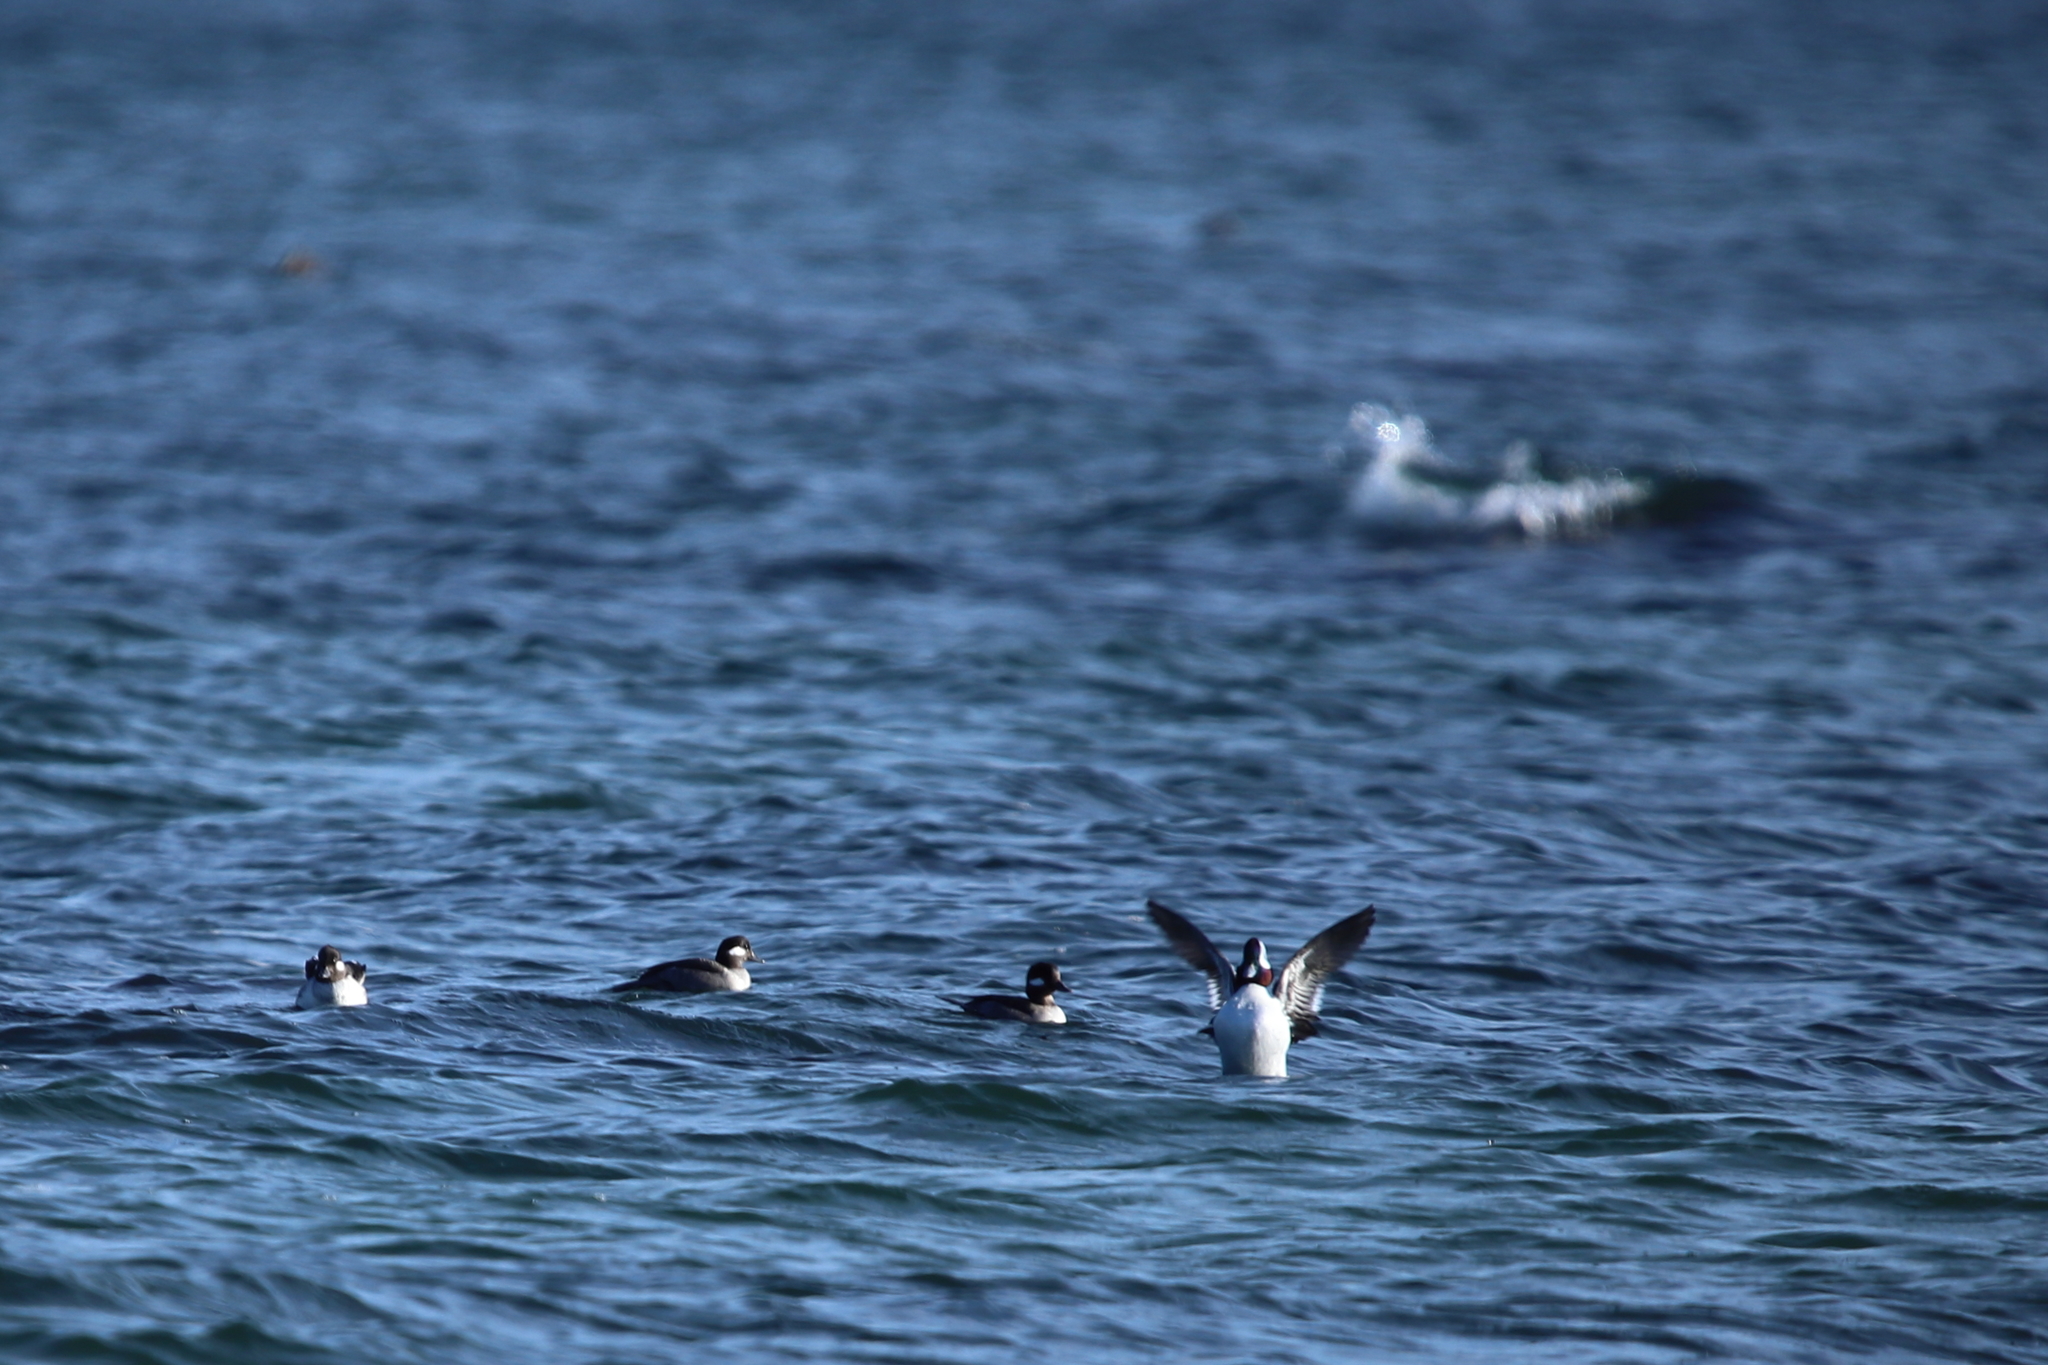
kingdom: Animalia
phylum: Chordata
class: Aves
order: Anseriformes
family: Anatidae
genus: Bucephala
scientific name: Bucephala albeola
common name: Bufflehead
